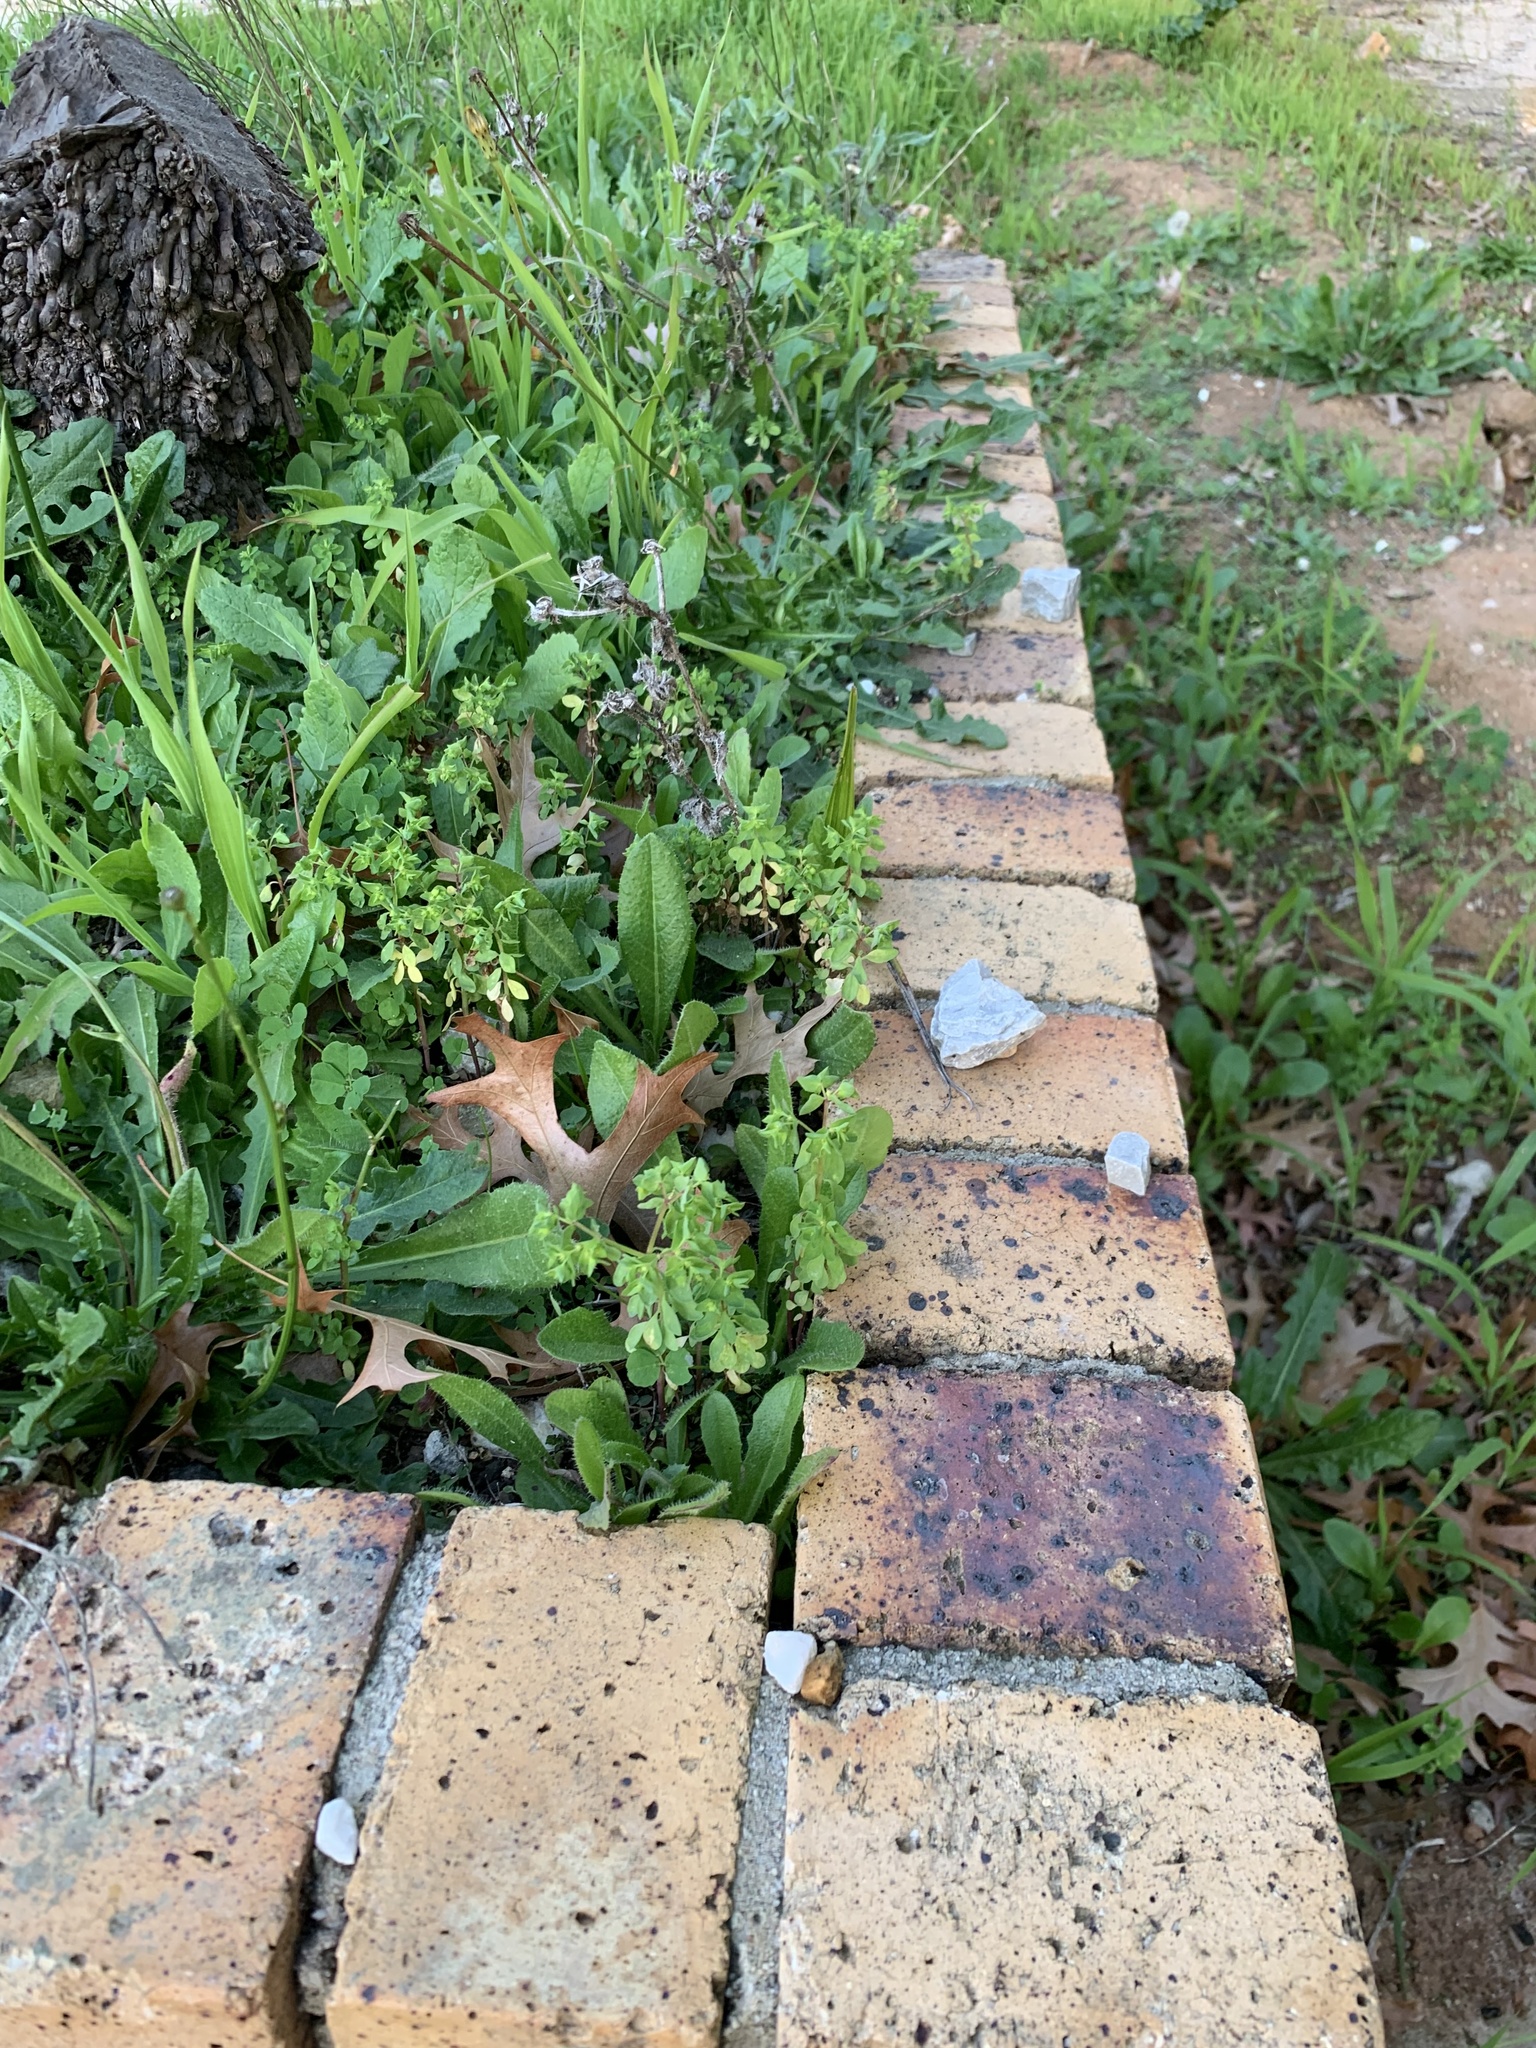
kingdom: Plantae
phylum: Tracheophyta
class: Magnoliopsida
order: Malpighiales
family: Euphorbiaceae
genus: Euphorbia
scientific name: Euphorbia peplus
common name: Petty spurge
